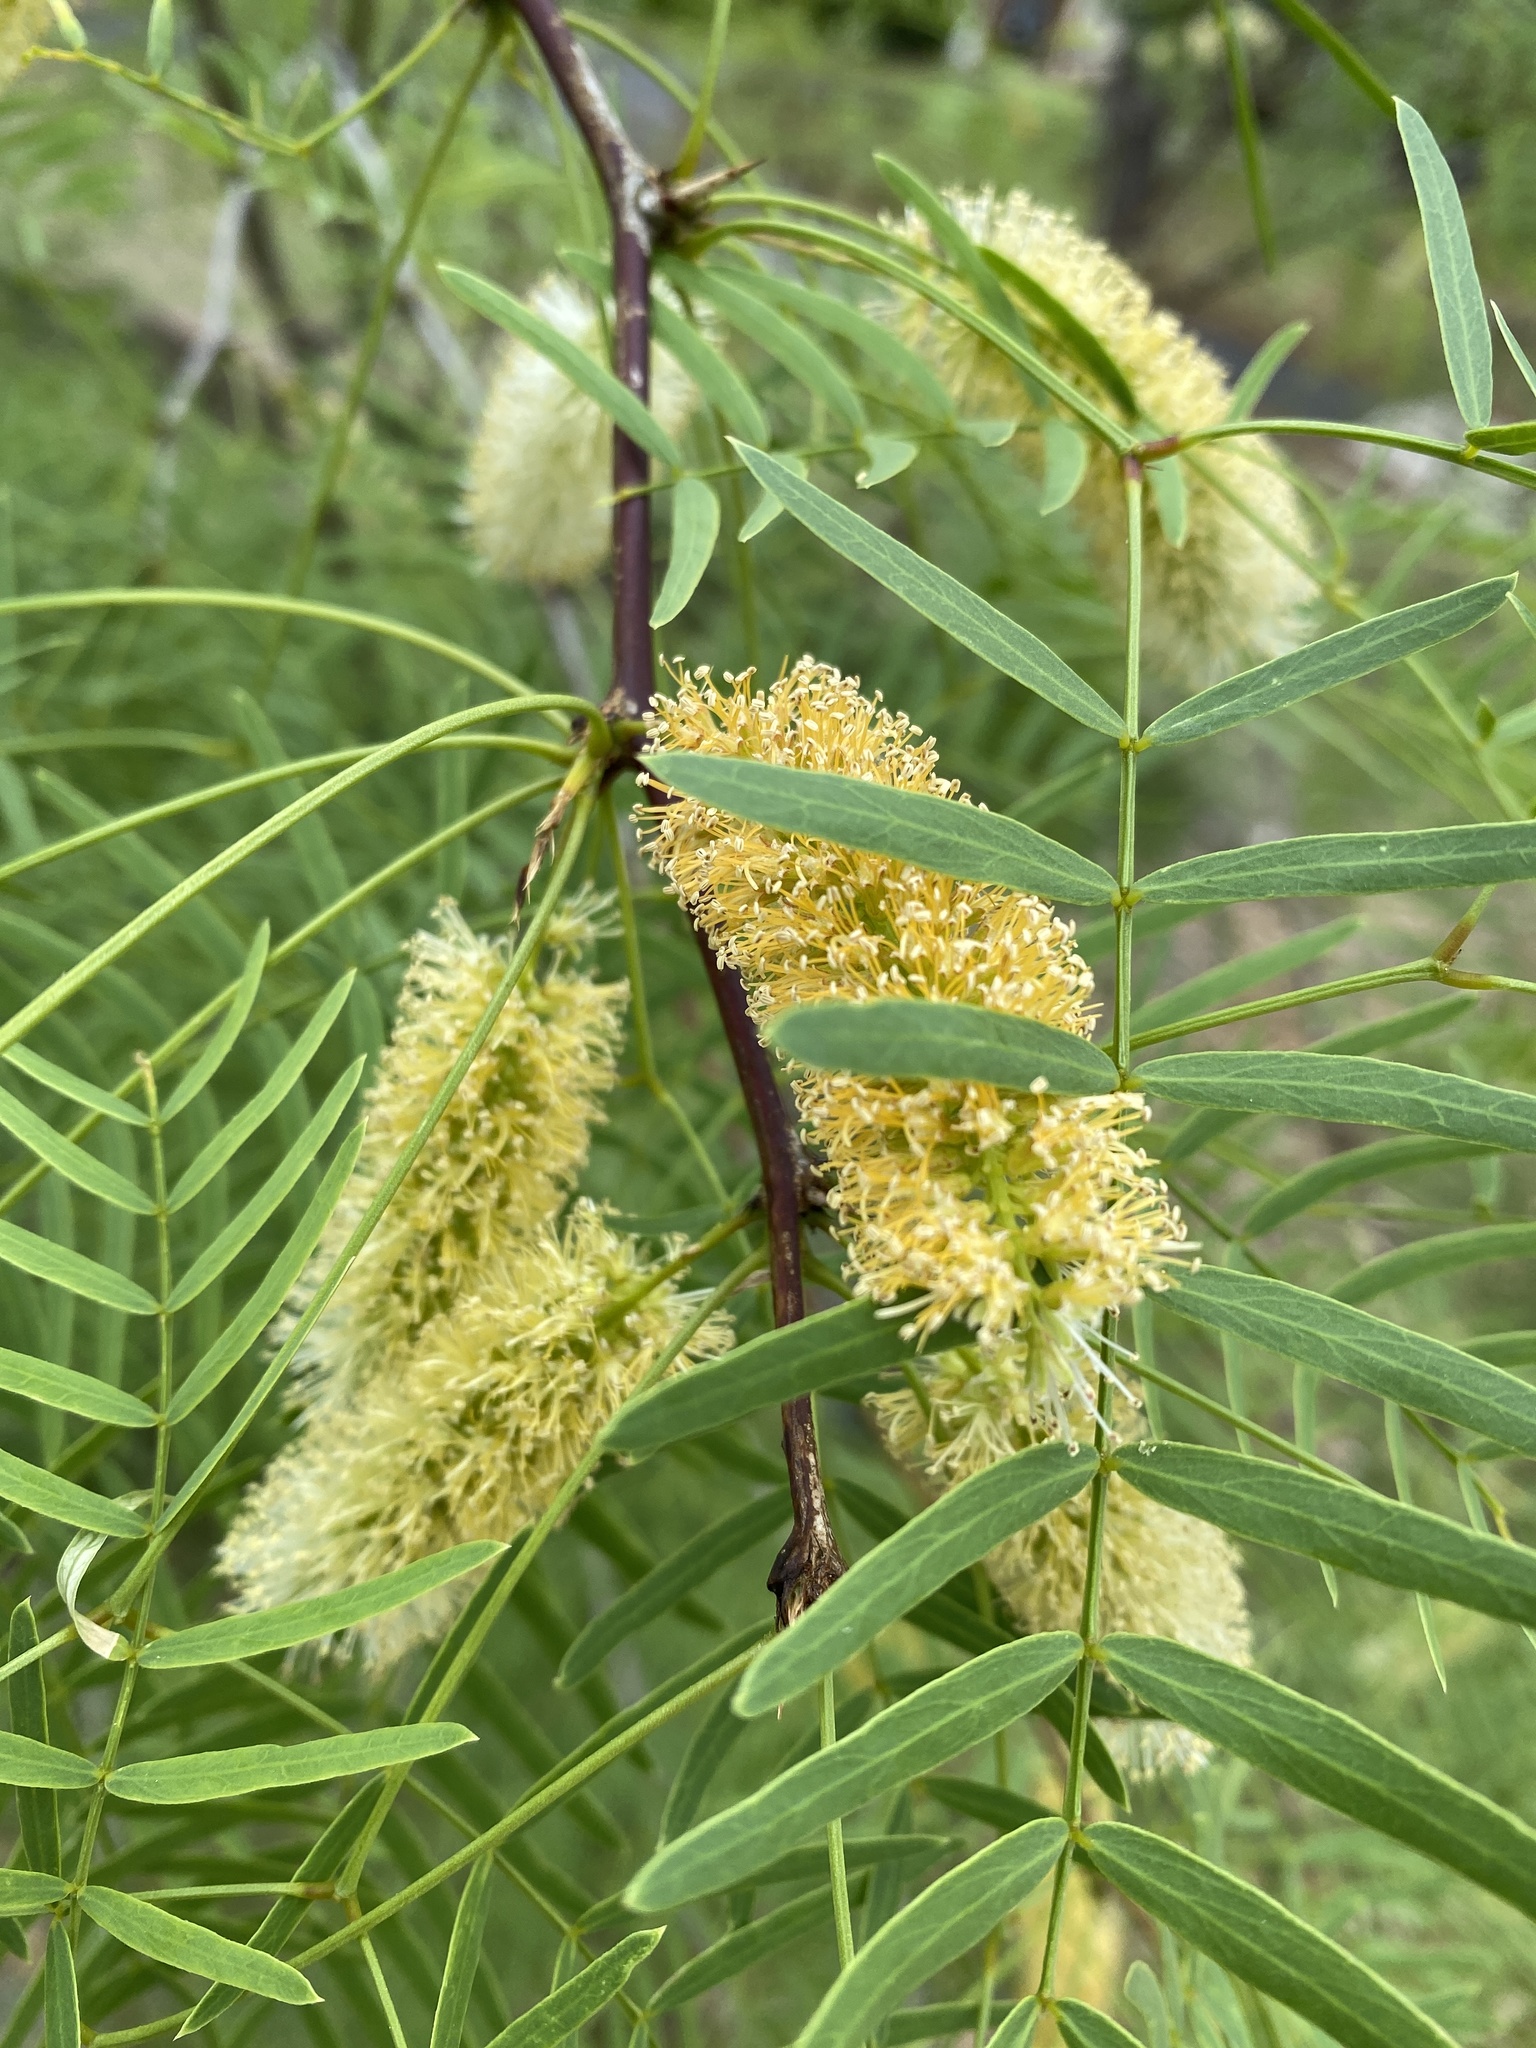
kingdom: Plantae
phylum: Tracheophyta
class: Magnoliopsida
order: Fabales
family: Fabaceae
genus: Prosopis
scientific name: Prosopis glandulosa
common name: Honey mesquite
